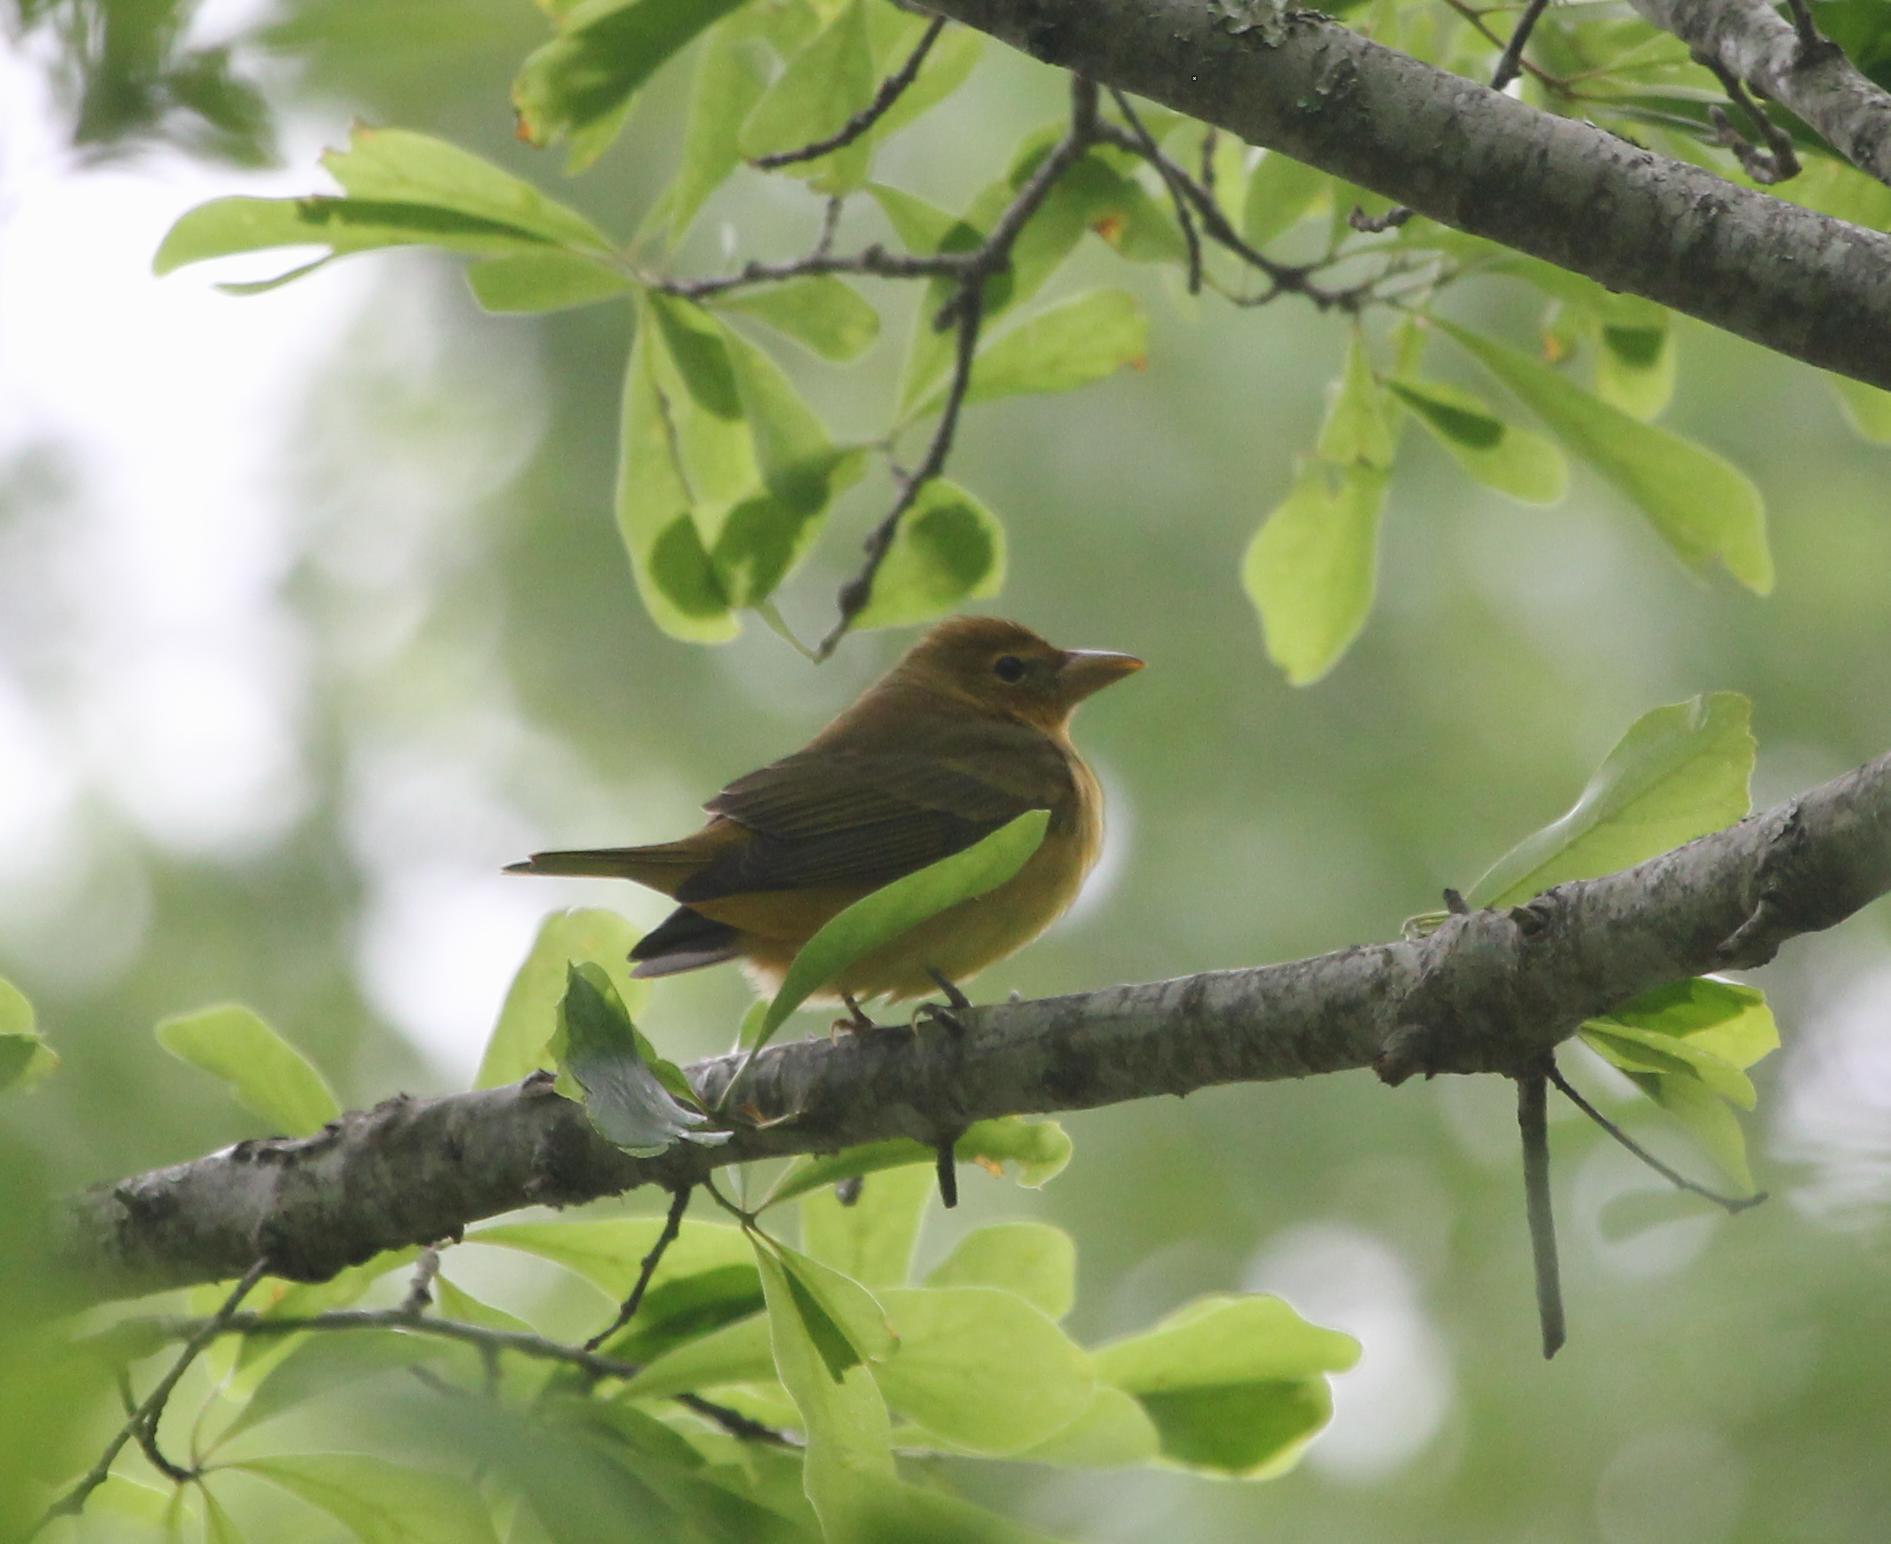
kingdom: Animalia
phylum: Chordata
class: Aves
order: Passeriformes
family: Cardinalidae
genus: Piranga
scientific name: Piranga rubra
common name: Summer tanager
